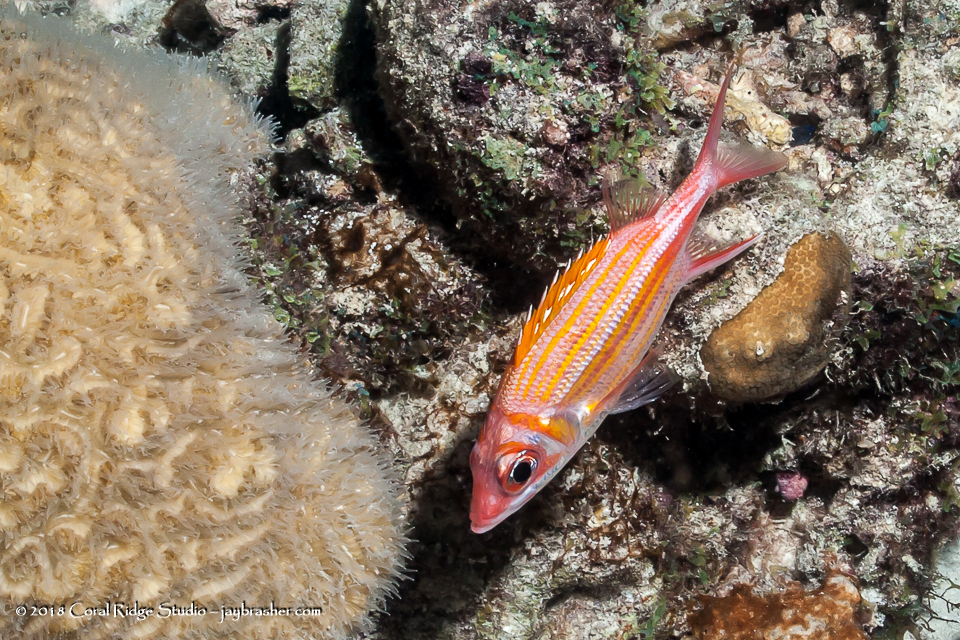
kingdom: Animalia
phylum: Chordata
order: Beryciformes
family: Holocentridae
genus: Neoniphon
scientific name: Neoniphon marianus
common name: Longjaw squirrelfish
